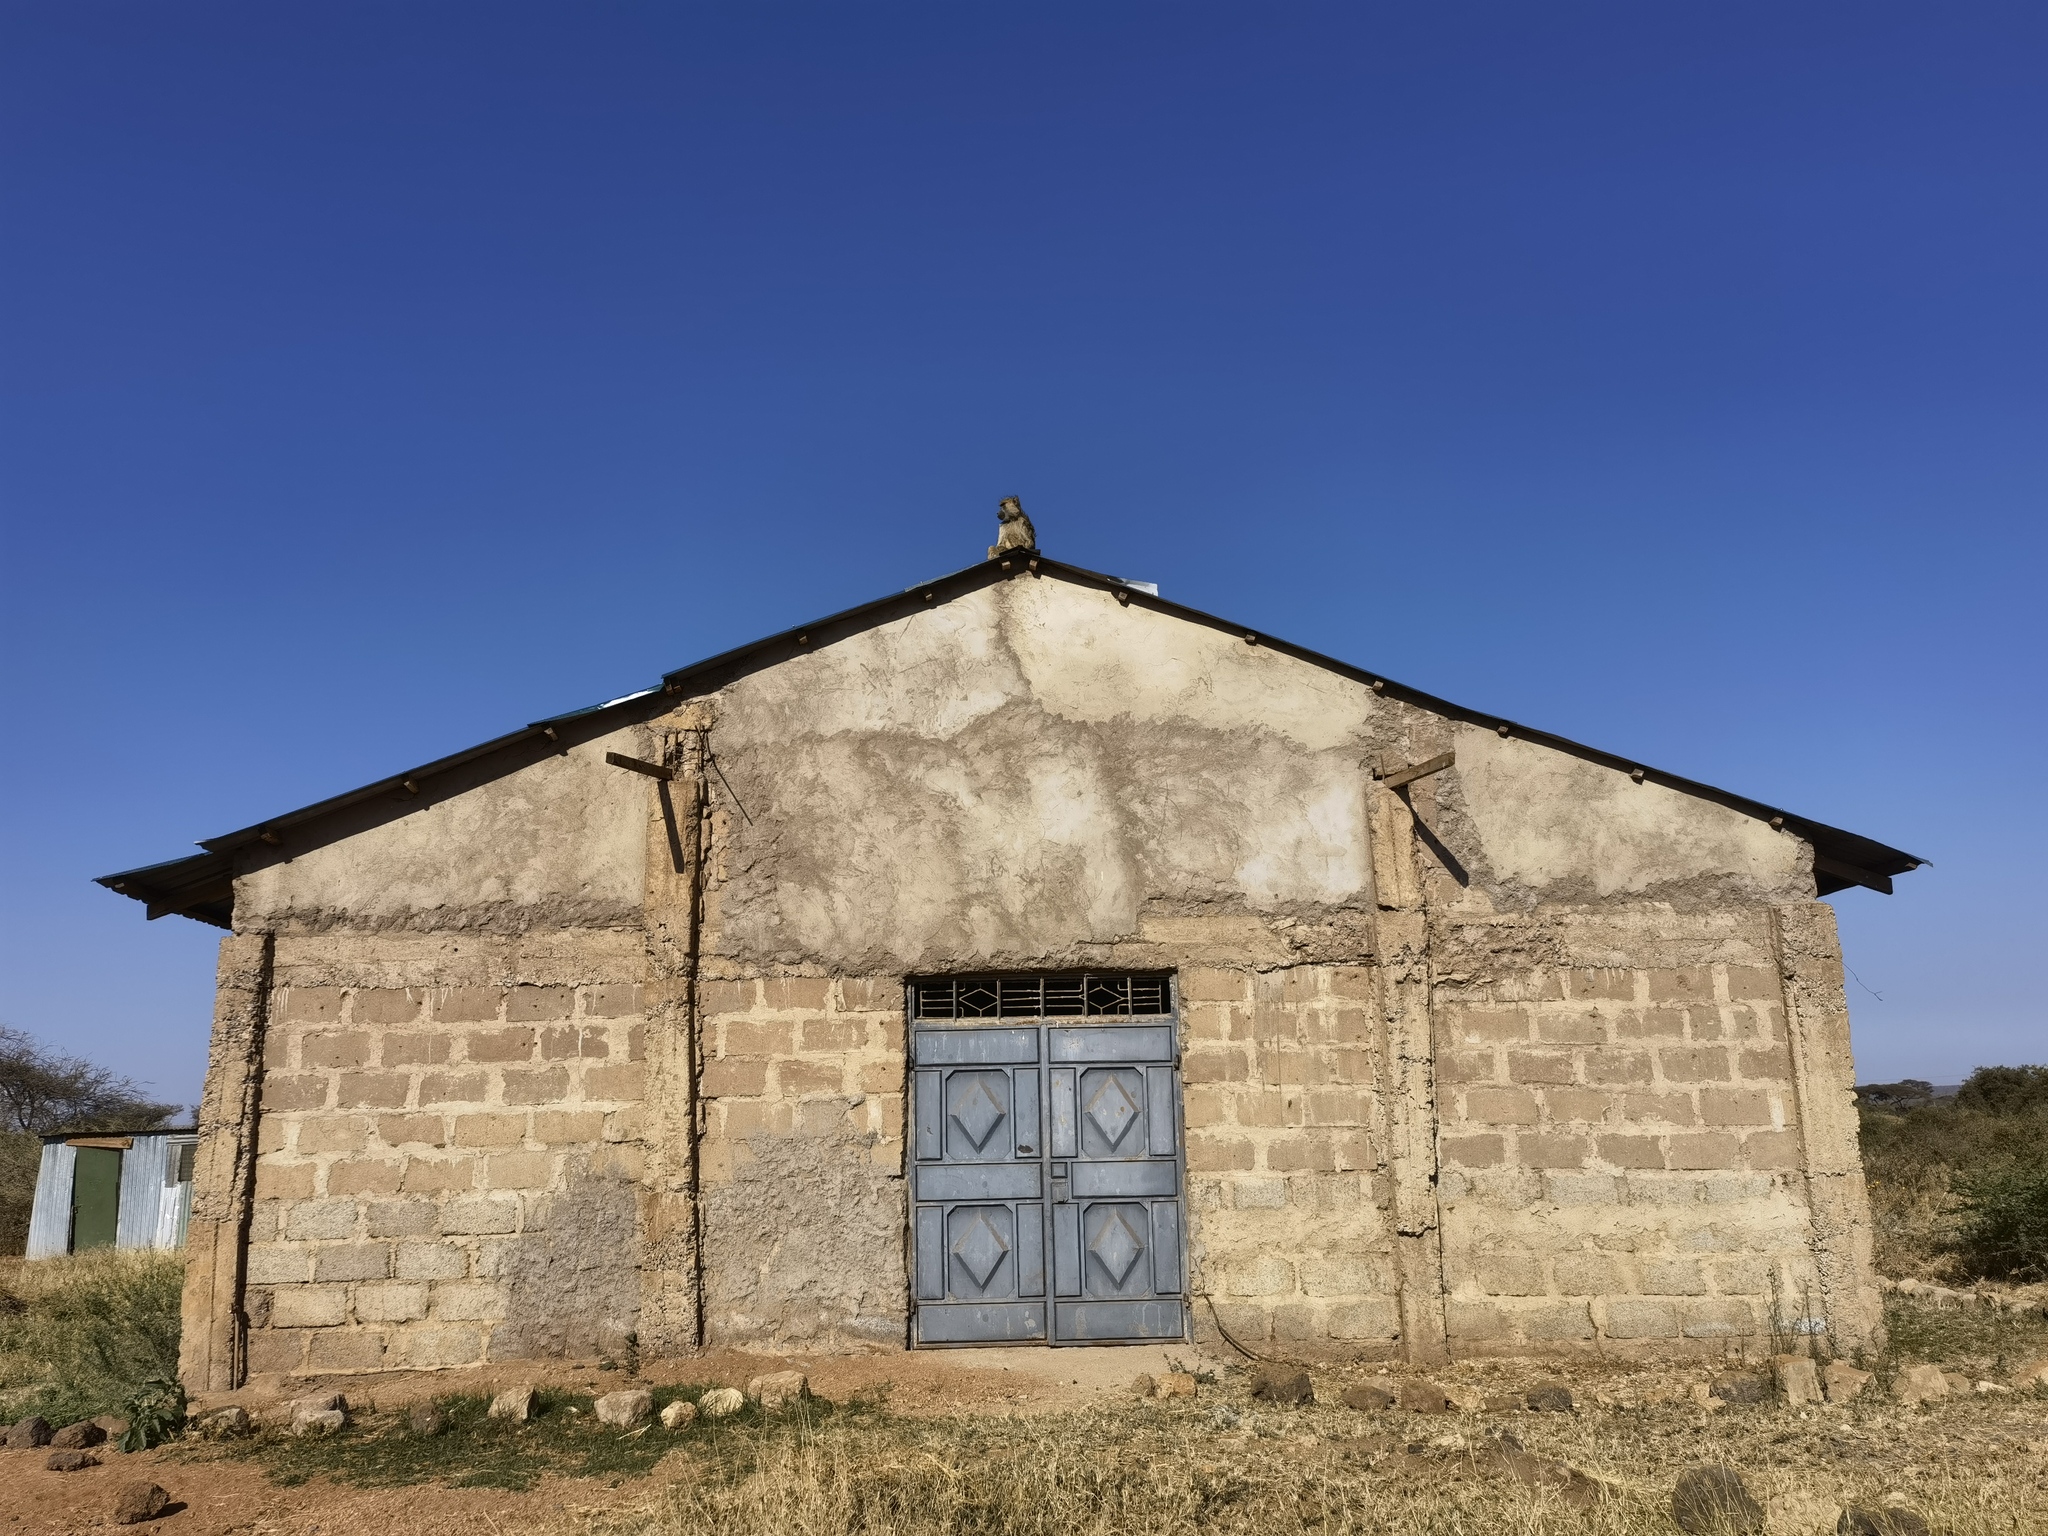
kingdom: Animalia
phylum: Chordata
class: Mammalia
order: Primates
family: Cercopithecidae
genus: Papio
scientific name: Papio cynocephalus
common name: Yellow baboon
